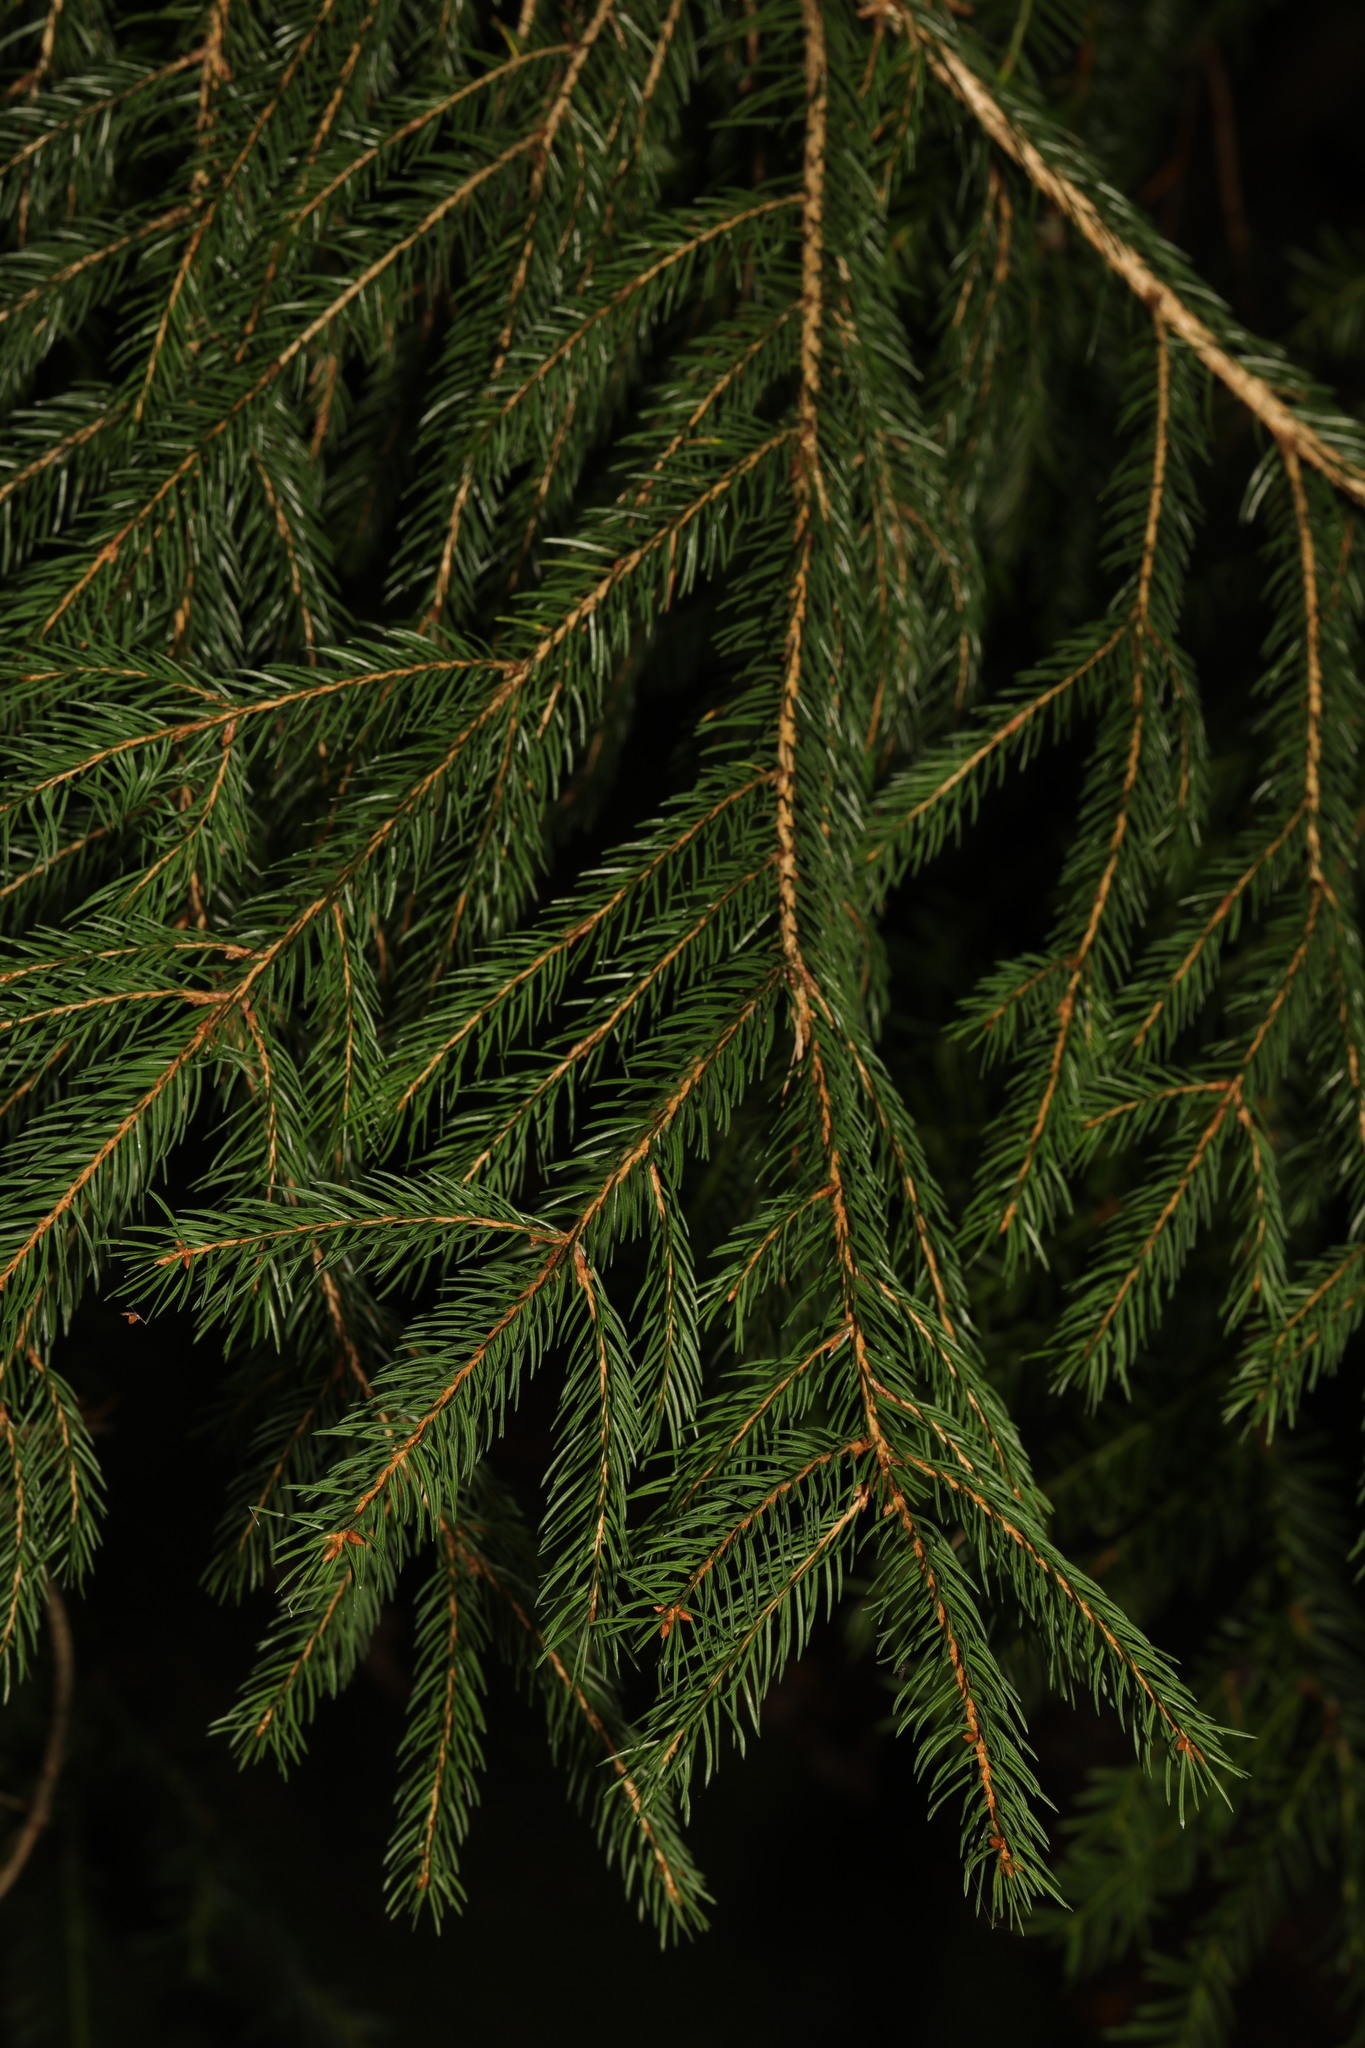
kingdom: Plantae
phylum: Tracheophyta
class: Pinopsida
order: Pinales
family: Pinaceae
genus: Picea
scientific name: Picea abies
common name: Norway spruce
